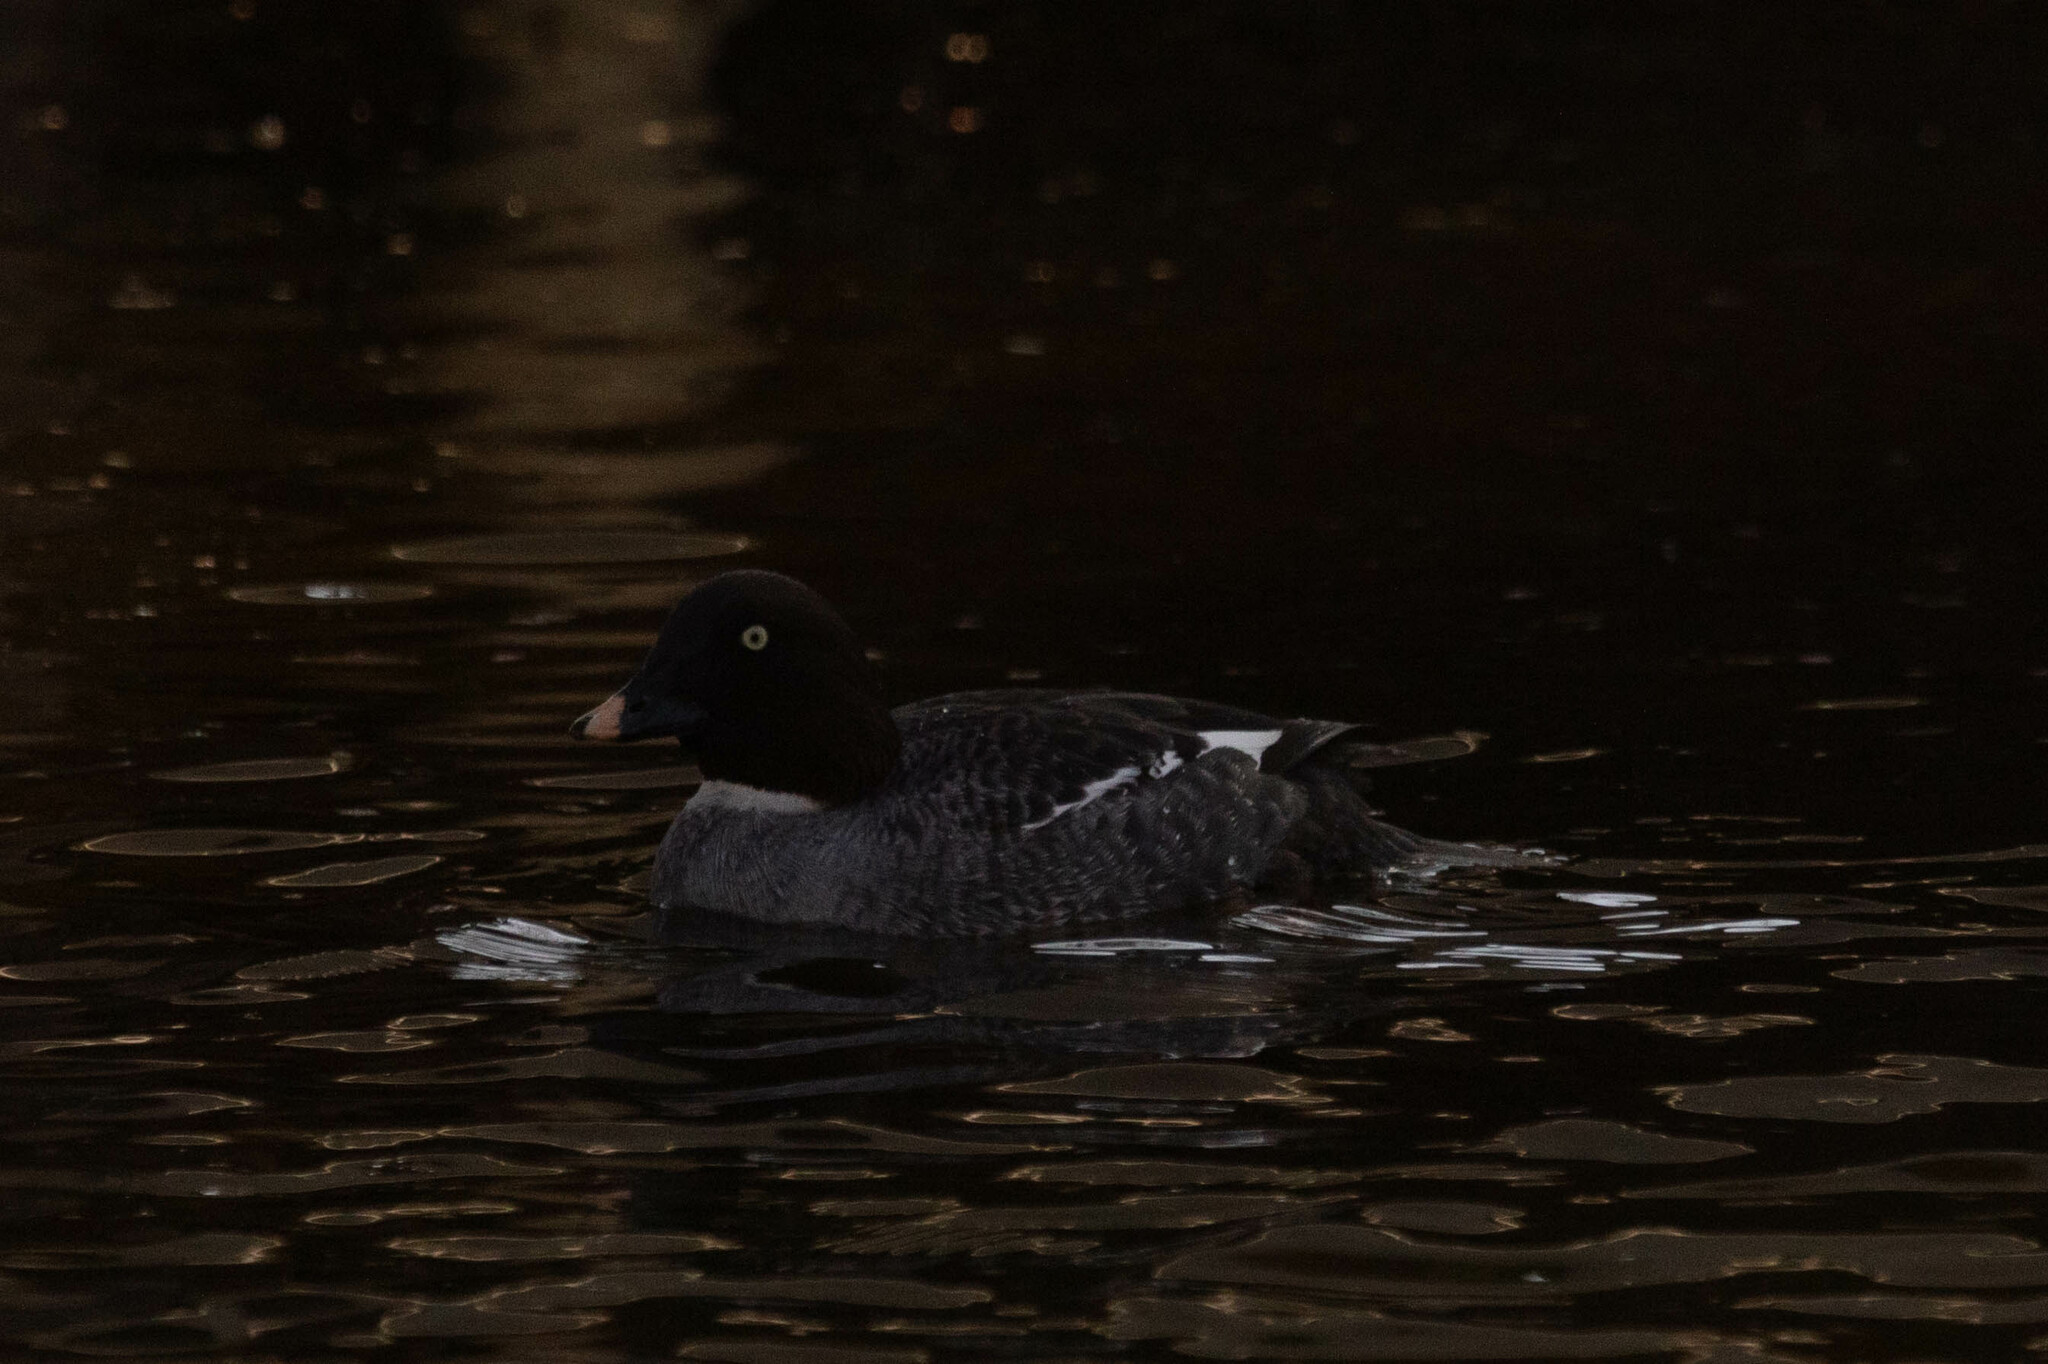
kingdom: Animalia
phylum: Chordata
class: Aves
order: Anseriformes
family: Anatidae
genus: Bucephala
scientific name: Bucephala clangula
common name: Common goldeneye
